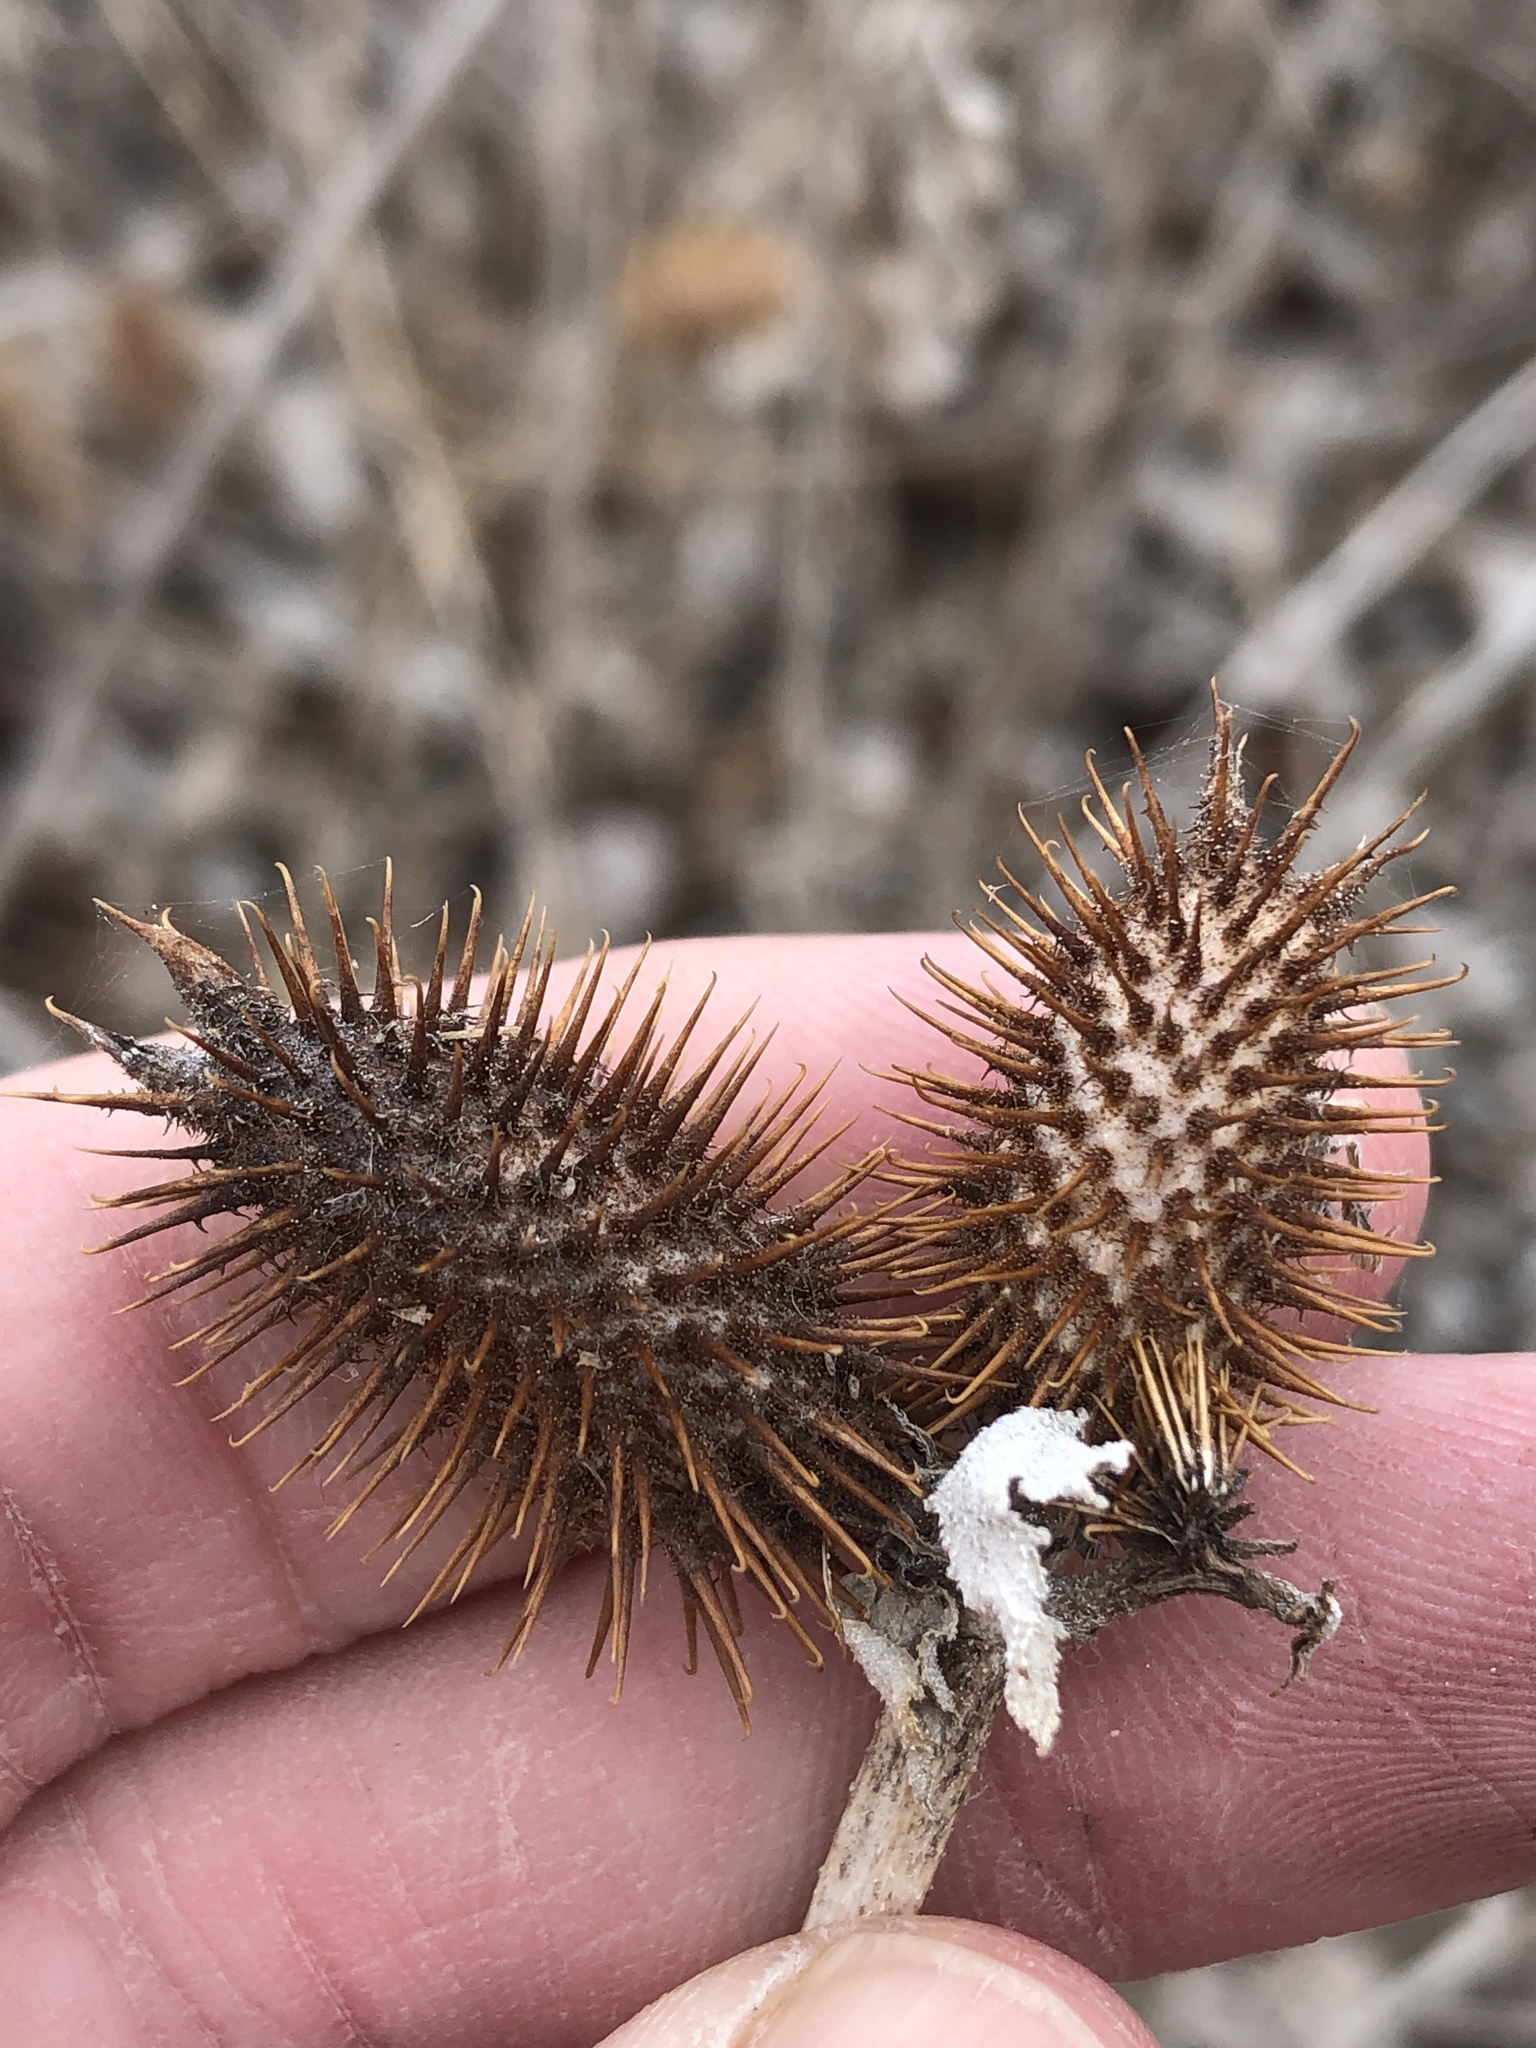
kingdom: Plantae
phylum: Tracheophyta
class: Magnoliopsida
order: Asterales
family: Asteraceae
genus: Xanthium
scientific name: Xanthium strumarium
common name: Rough cocklebur
